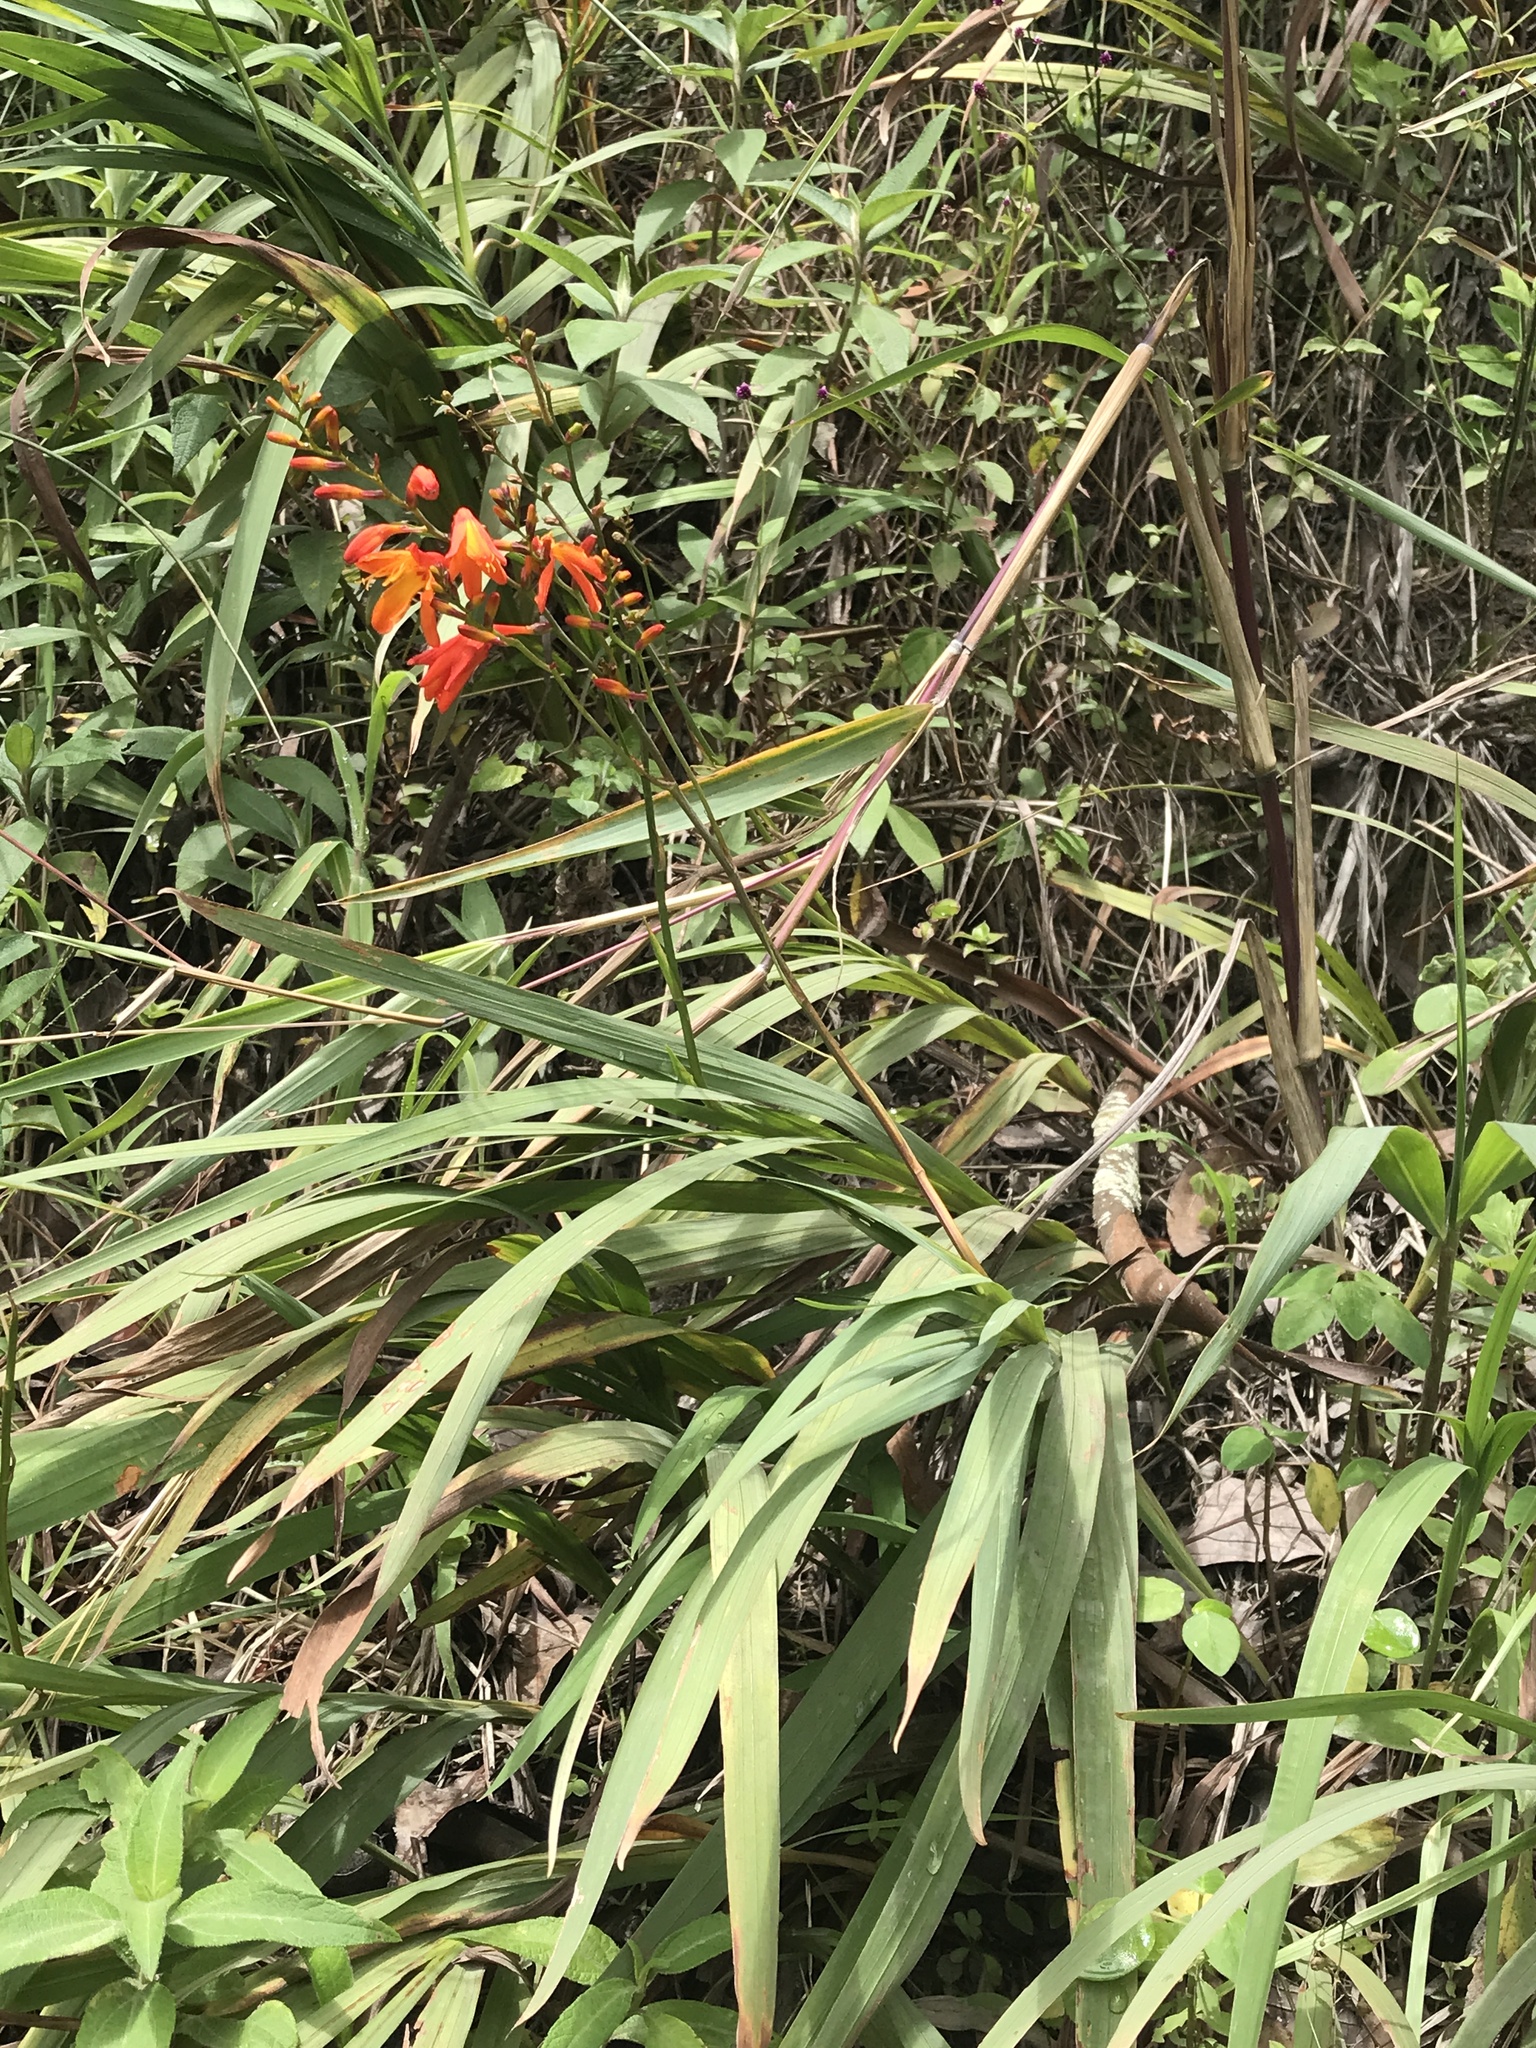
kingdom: Plantae
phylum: Tracheophyta
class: Liliopsida
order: Asparagales
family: Iridaceae
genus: Crocosmia
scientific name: Crocosmia crocosmiiflora
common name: Montbretia
